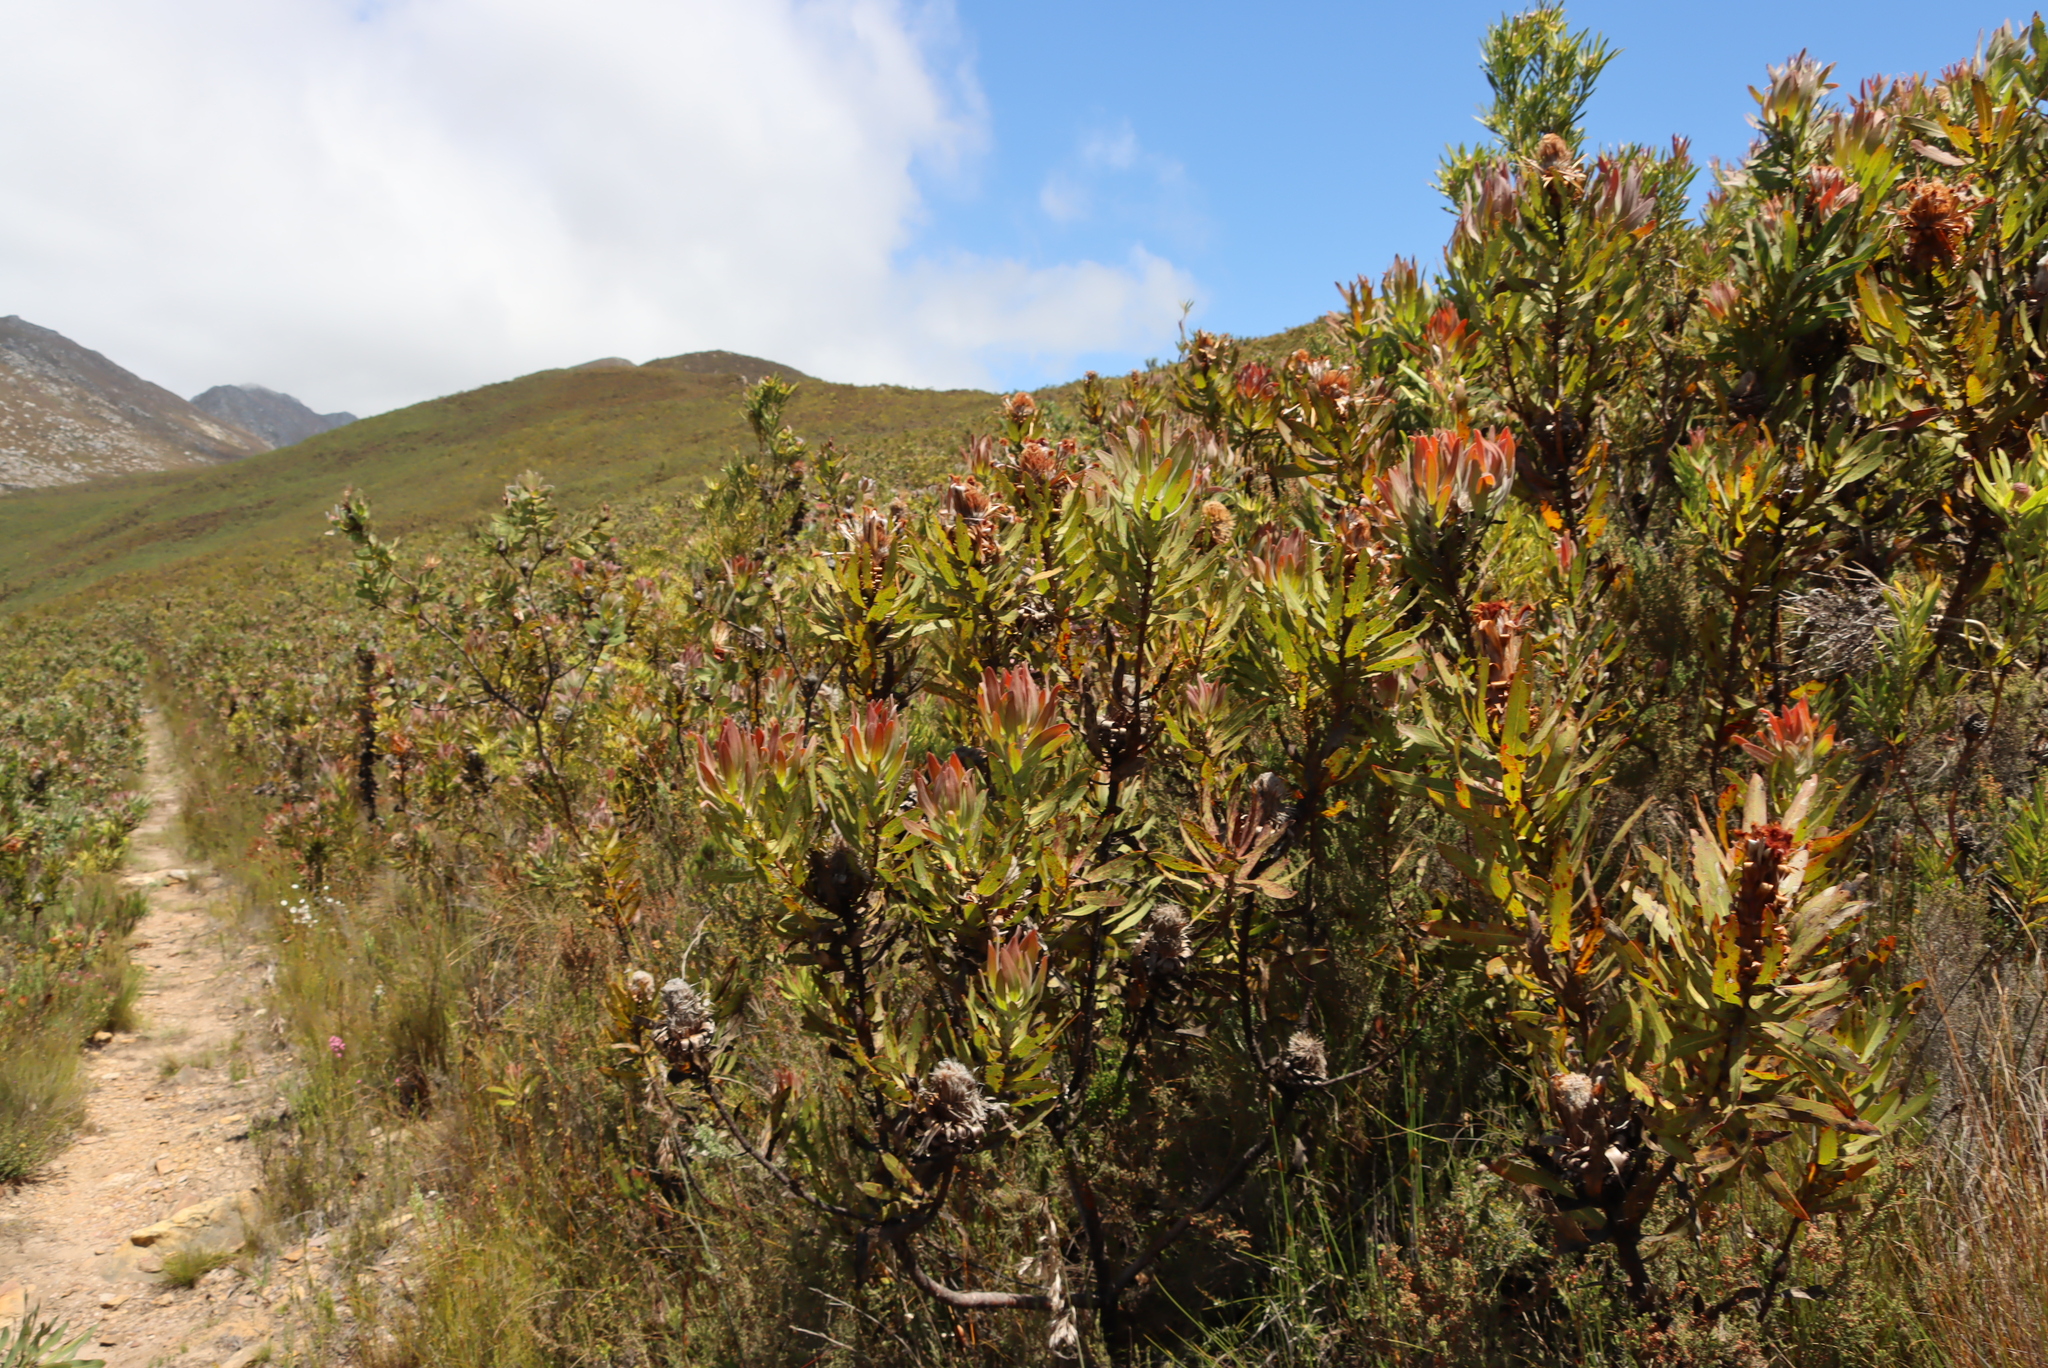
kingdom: Plantae
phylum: Tracheophyta
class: Magnoliopsida
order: Proteales
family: Proteaceae
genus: Protea
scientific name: Protea neriifolia
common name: Blue sugarbush
